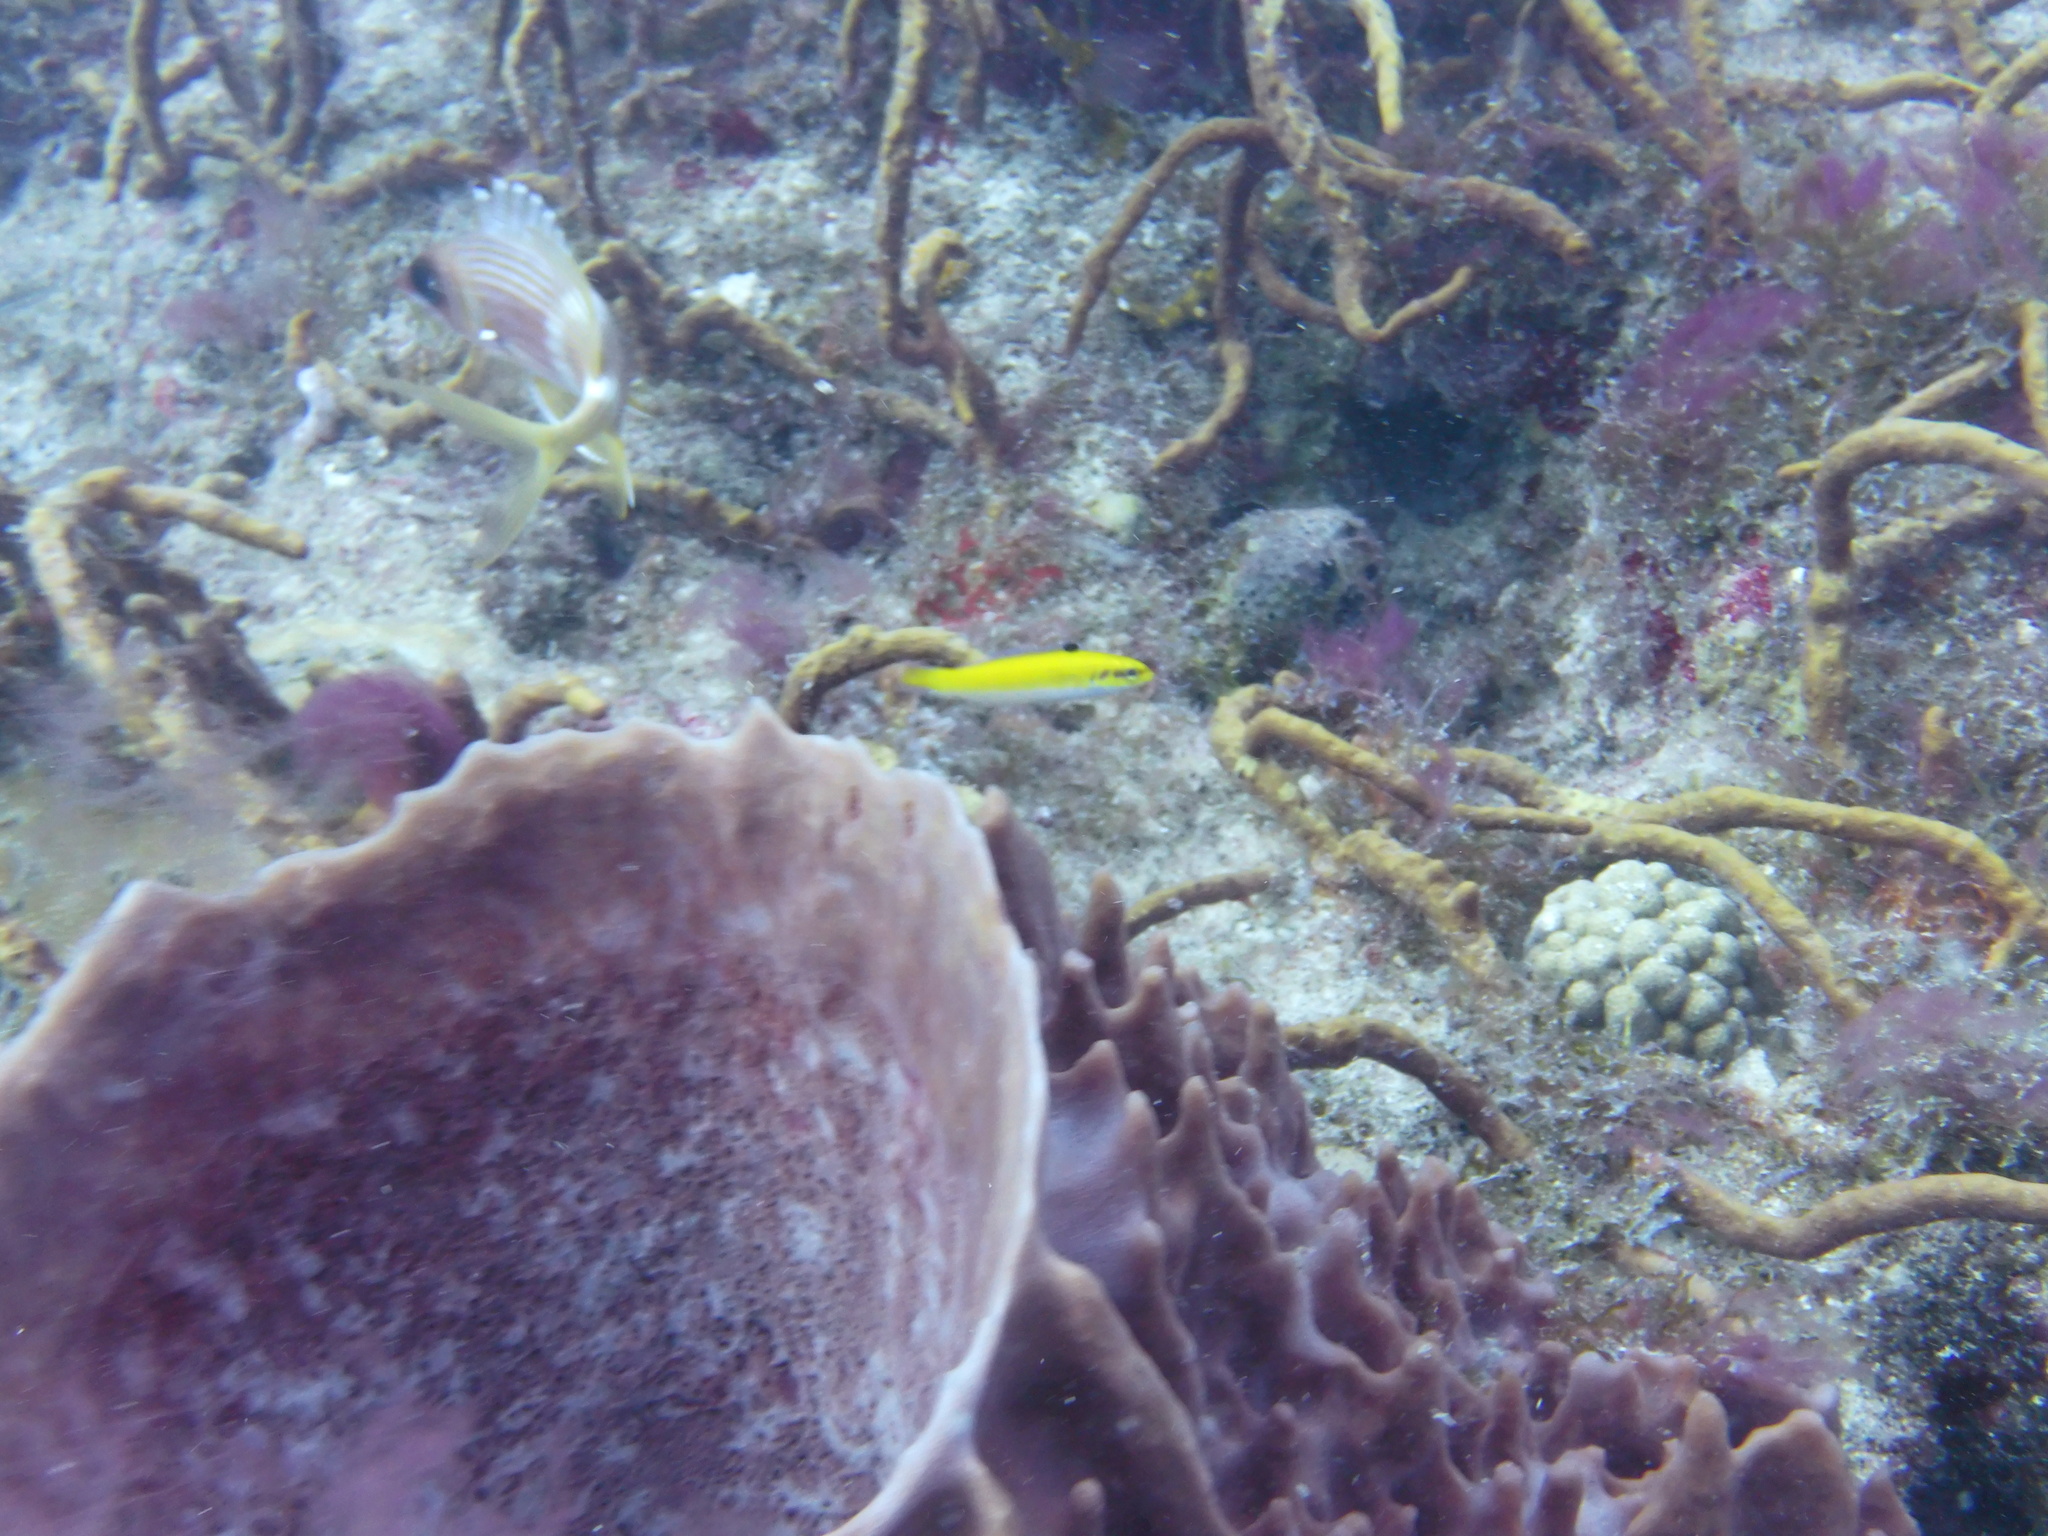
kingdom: Animalia
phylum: Chordata
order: Perciformes
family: Labridae
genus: Thalassoma
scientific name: Thalassoma bifasciatum
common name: Bluehead wrasse
